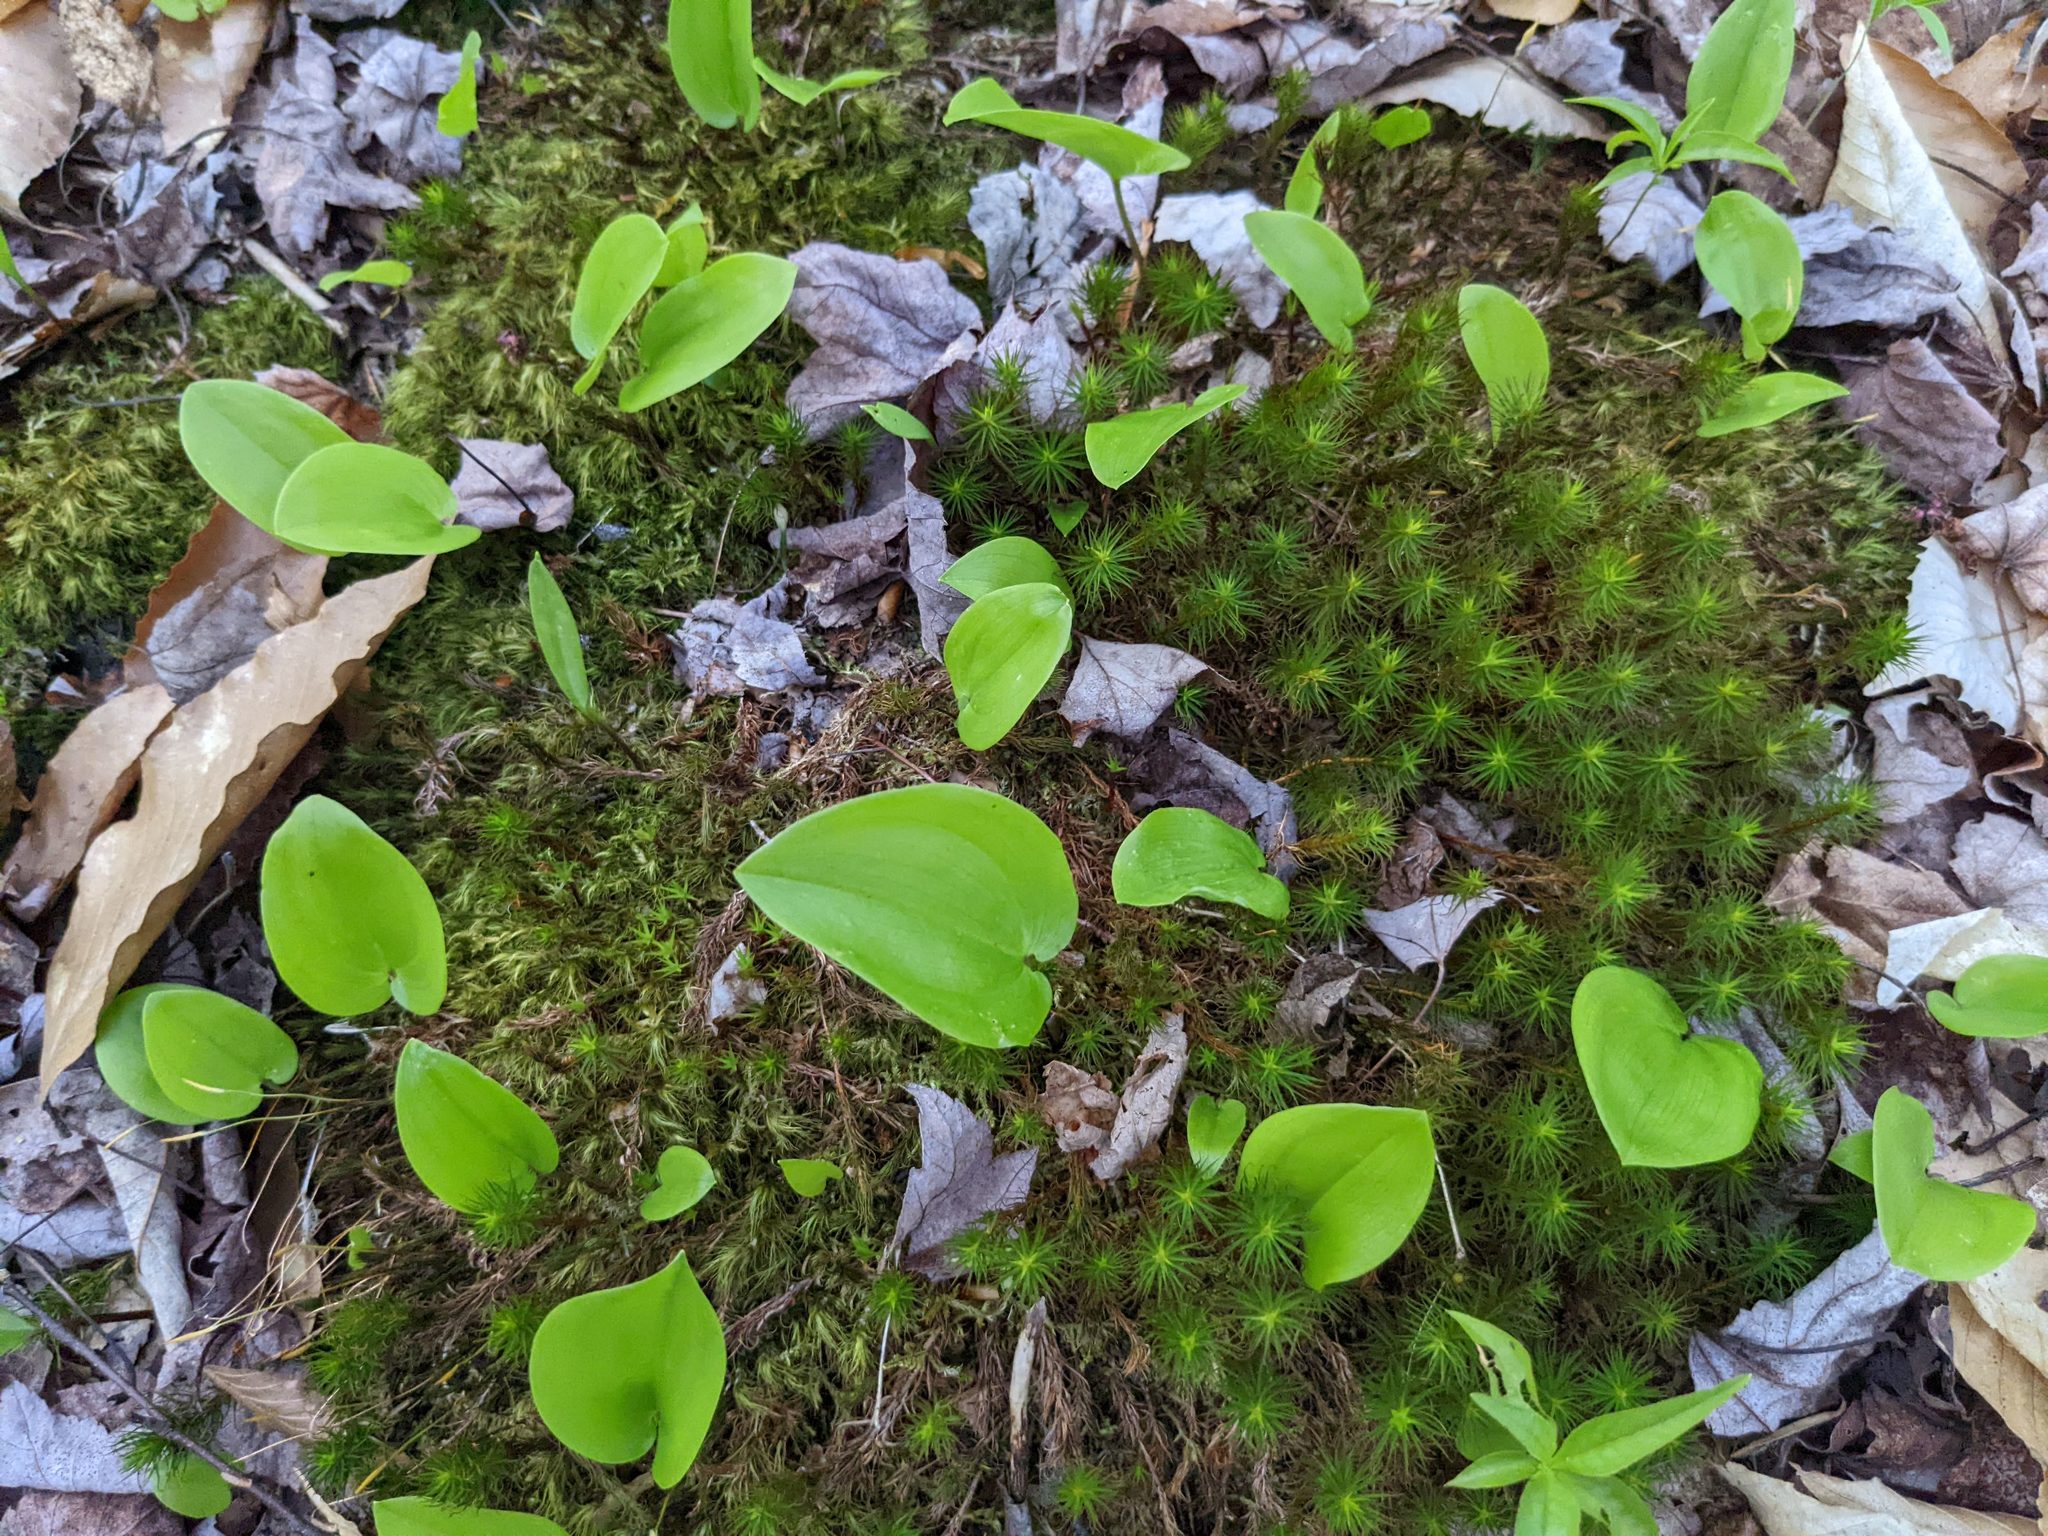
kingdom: Plantae
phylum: Tracheophyta
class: Liliopsida
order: Asparagales
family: Asparagaceae
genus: Maianthemum
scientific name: Maianthemum canadense
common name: False lily-of-the-valley
